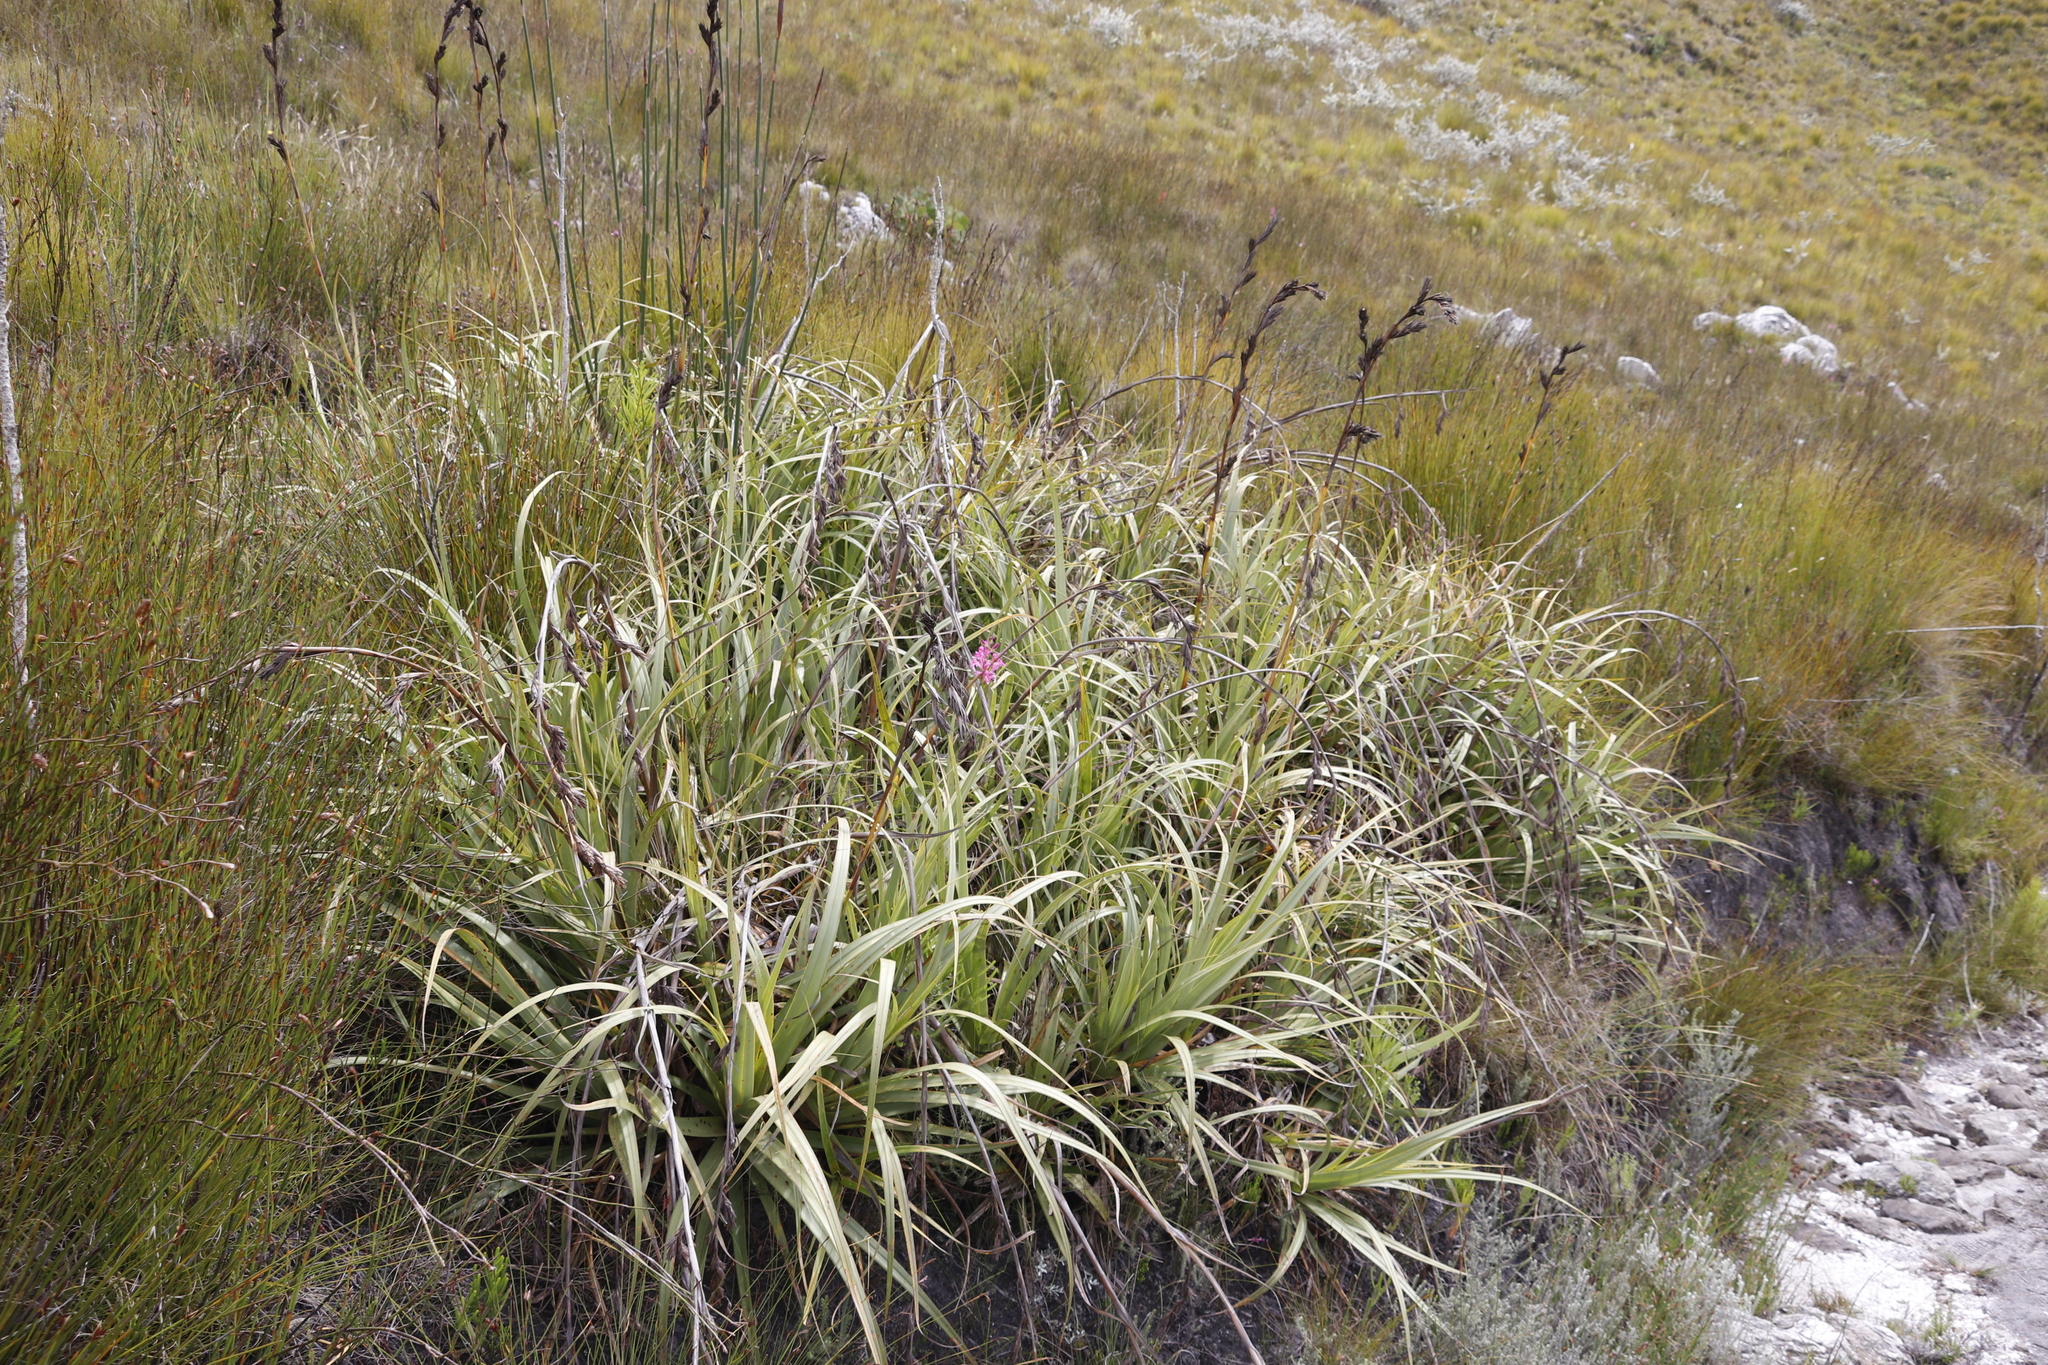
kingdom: Plantae
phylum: Tracheophyta
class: Liliopsida
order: Poales
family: Cyperaceae
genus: Tetraria
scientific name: Tetraria thermalis
